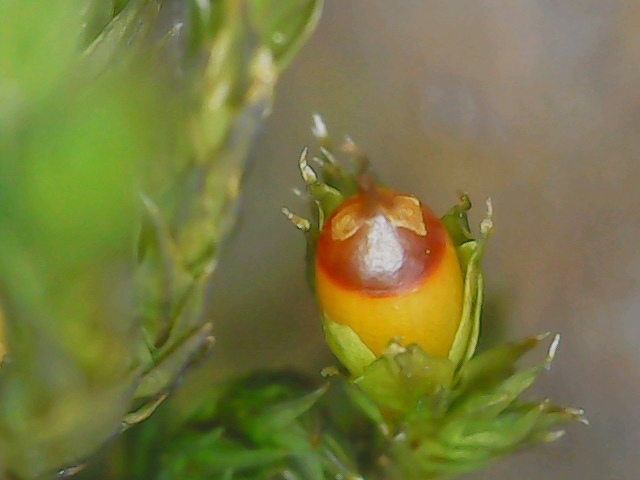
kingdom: Plantae
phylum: Bryophyta
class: Bryopsida
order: Grimmiales
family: Grimmiaceae
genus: Schistidium
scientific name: Schistidium crassipilum
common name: Thickpoint bloom moss
